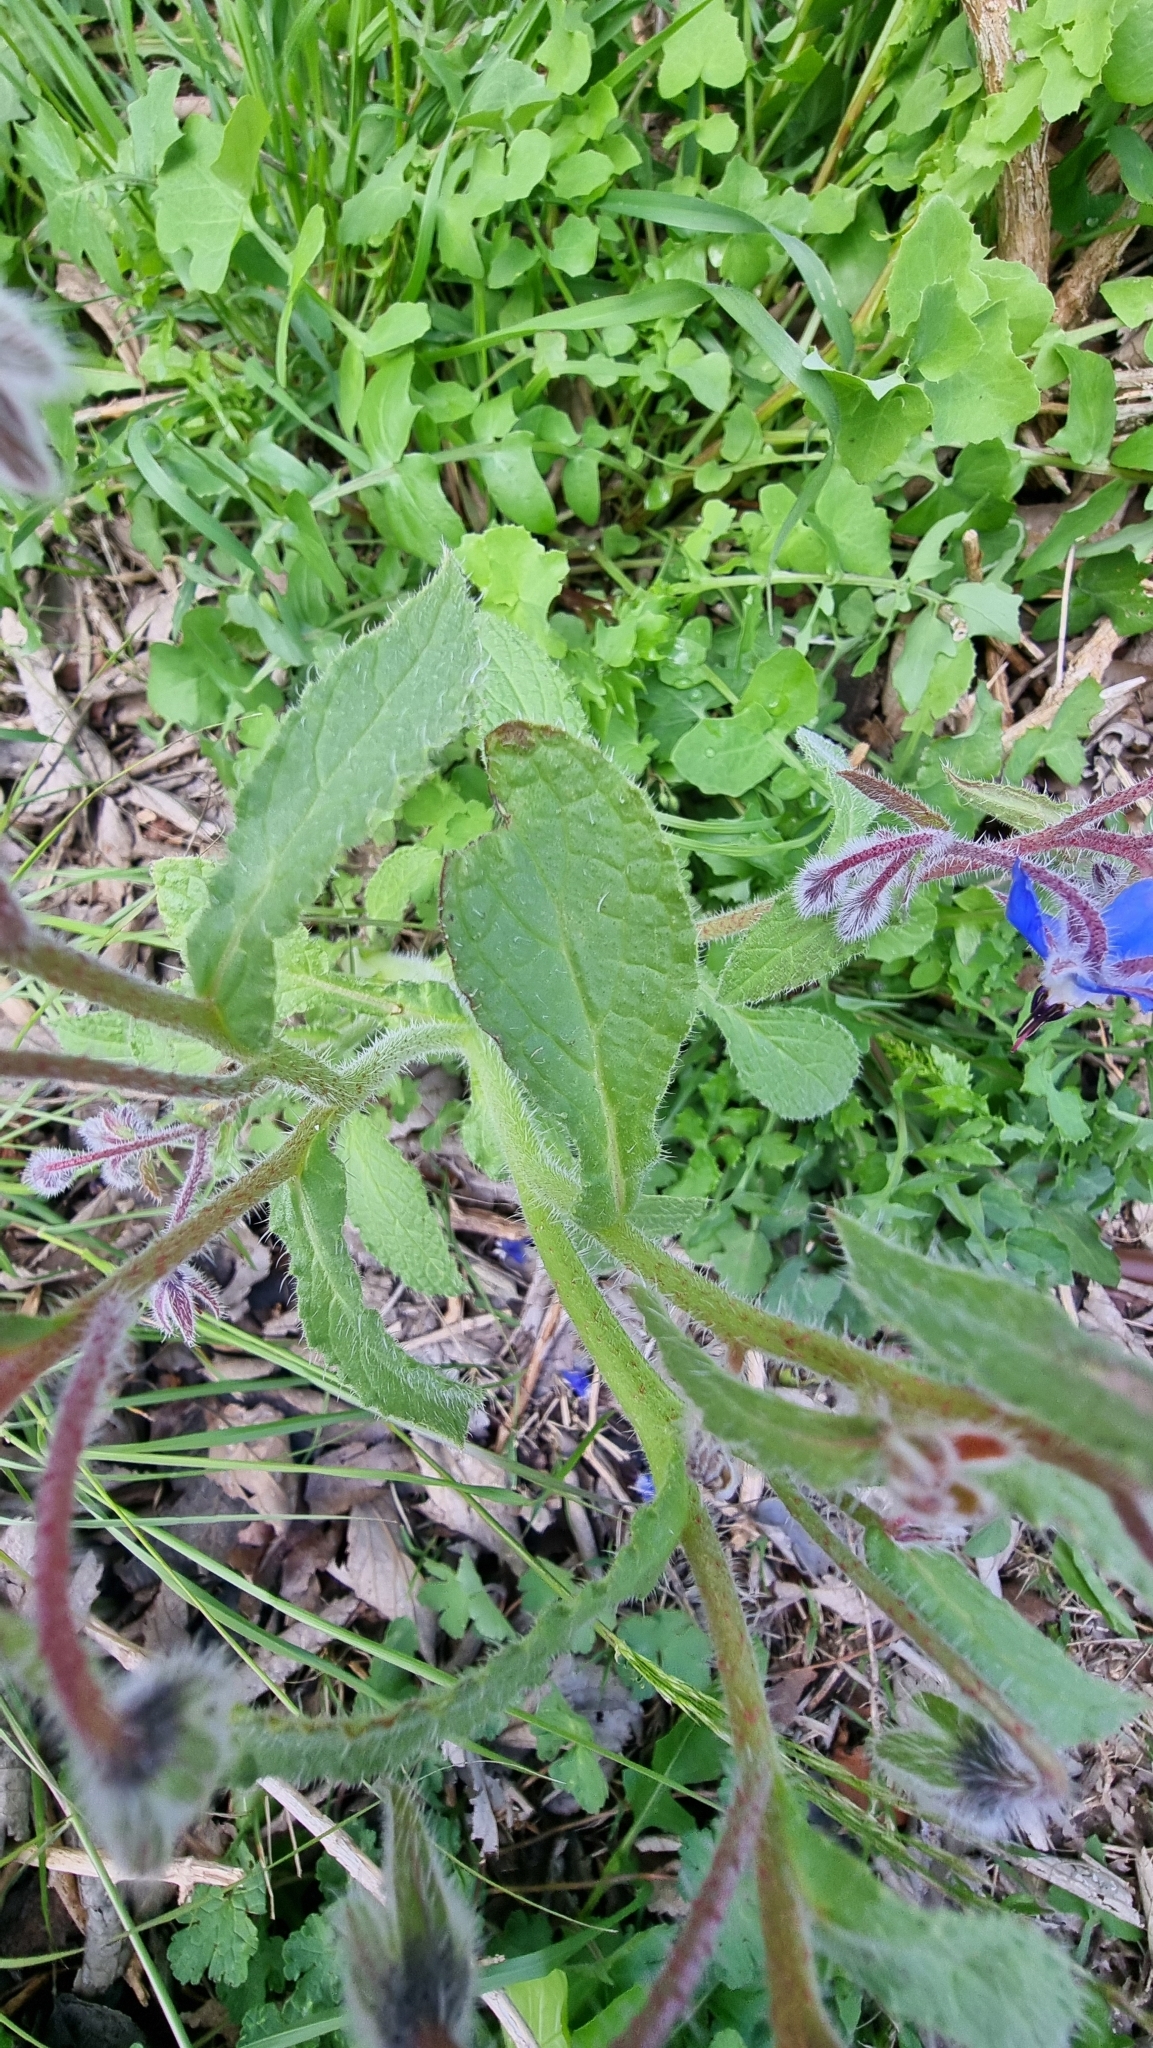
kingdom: Plantae
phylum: Tracheophyta
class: Magnoliopsida
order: Boraginales
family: Boraginaceae
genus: Borago
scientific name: Borago officinalis
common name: Borage
